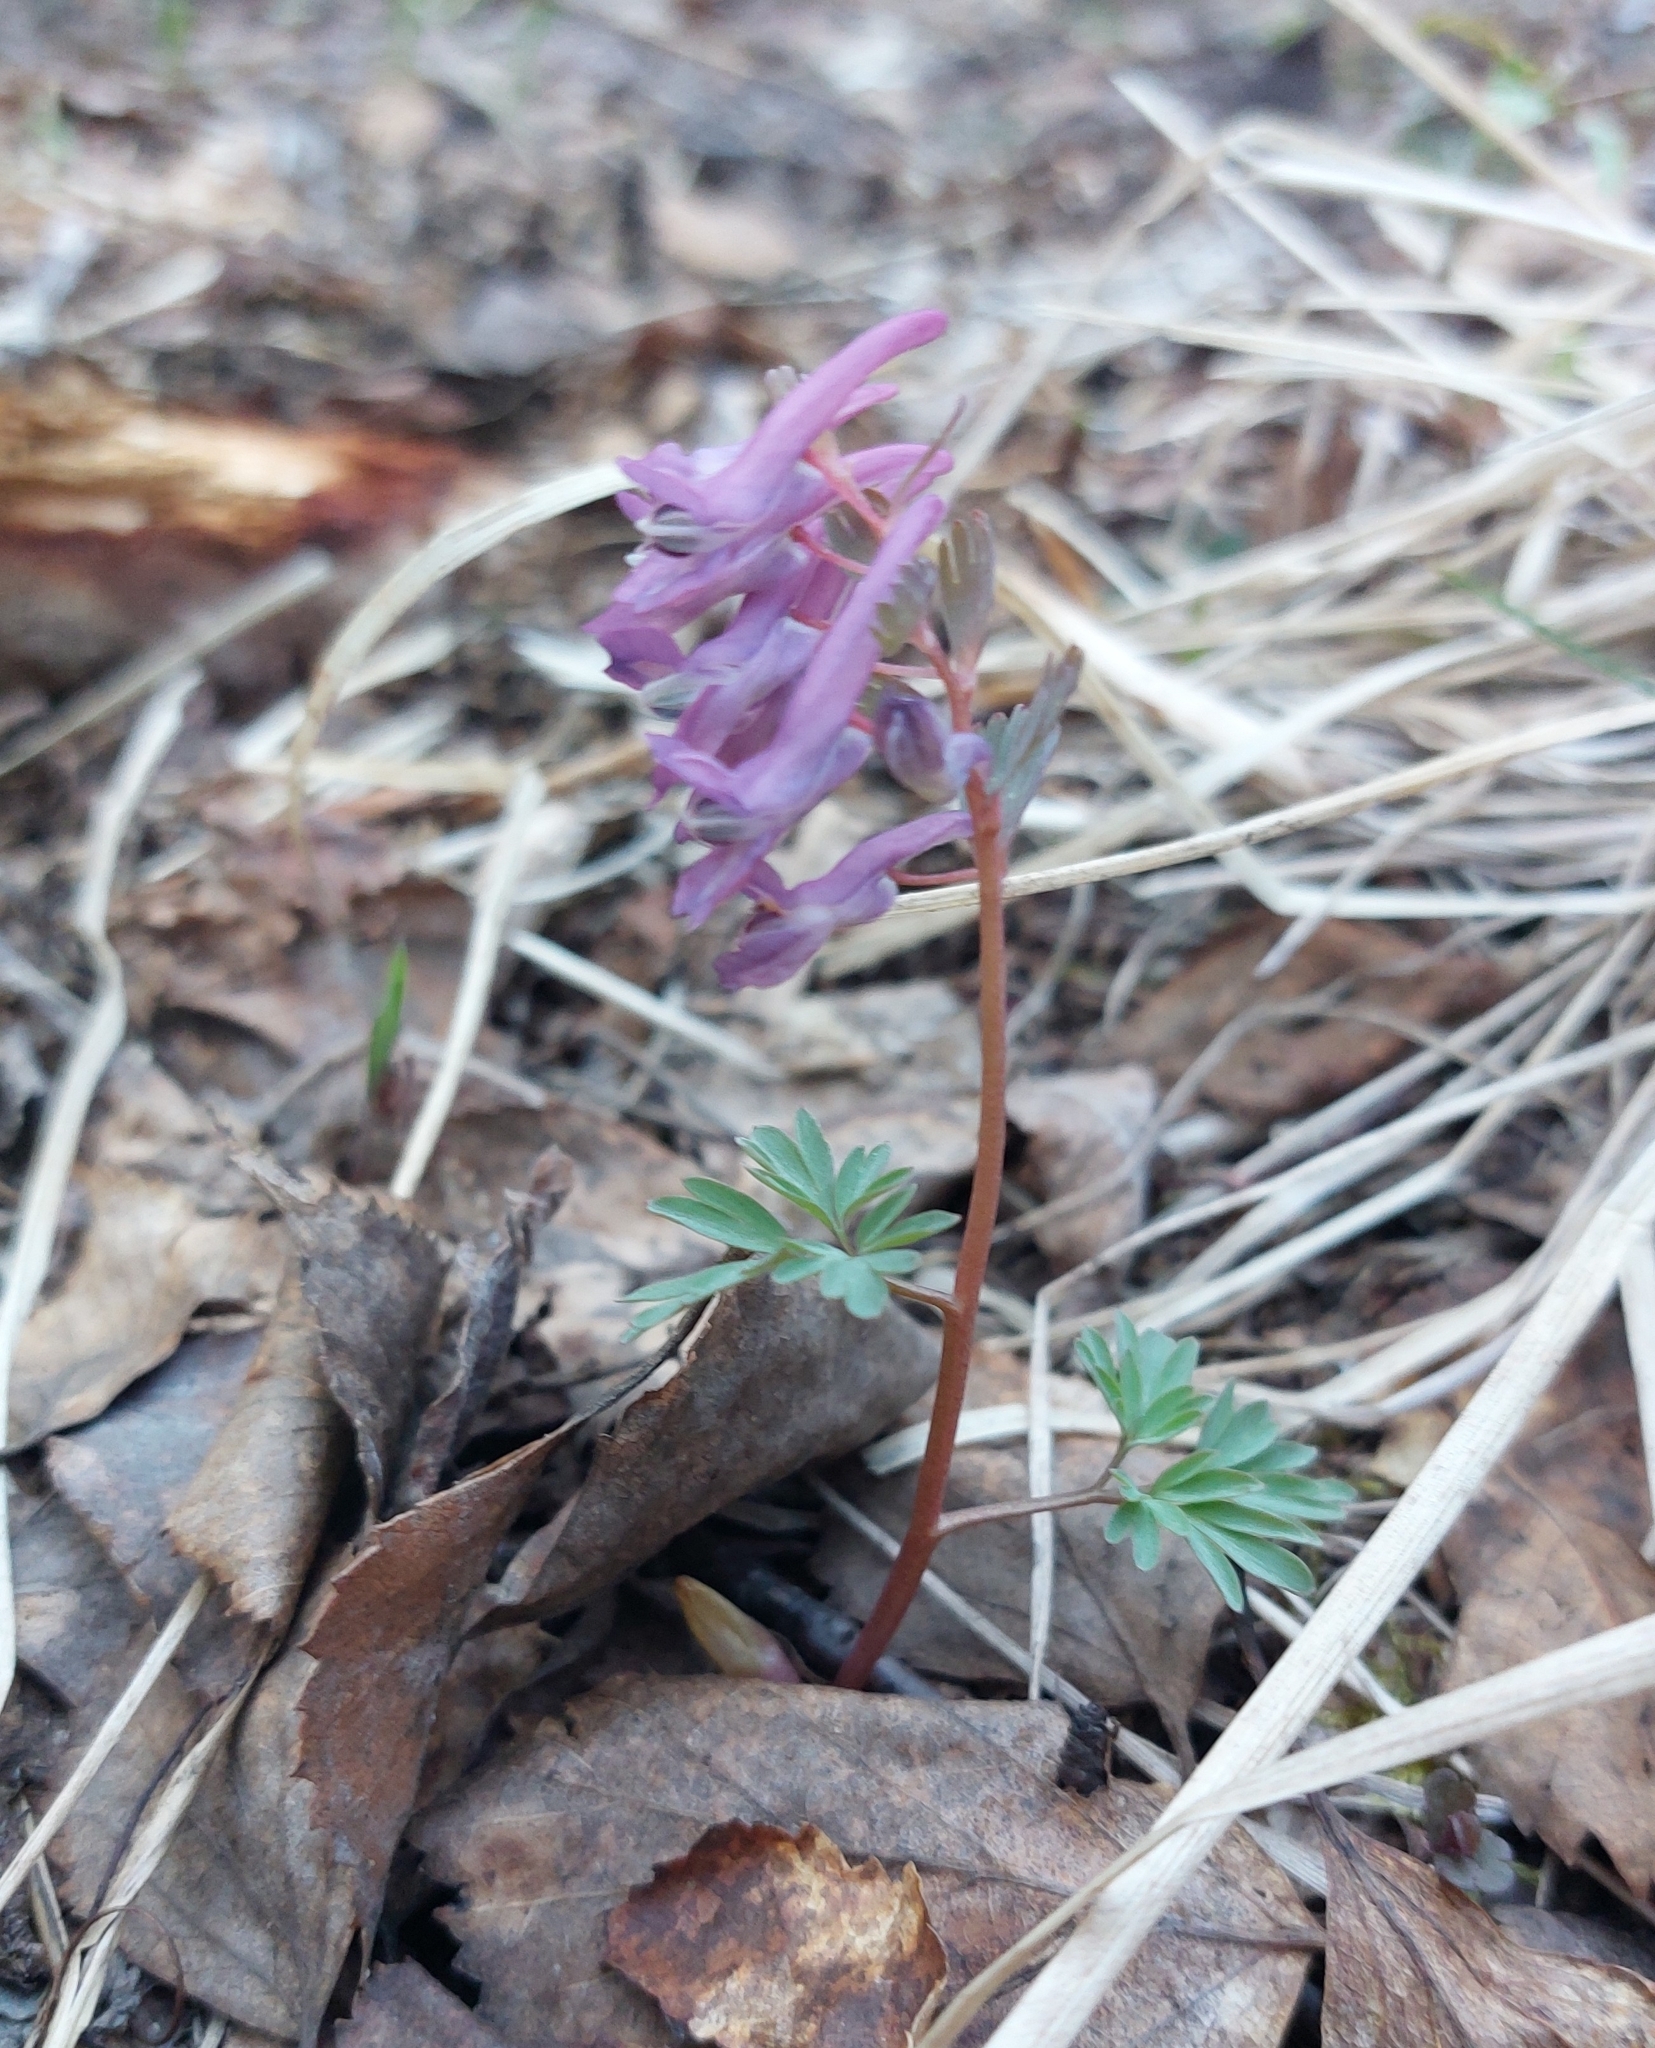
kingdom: Plantae
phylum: Tracheophyta
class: Magnoliopsida
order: Ranunculales
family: Papaveraceae
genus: Corydalis
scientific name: Corydalis solida
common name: Bird-in-a-bush
